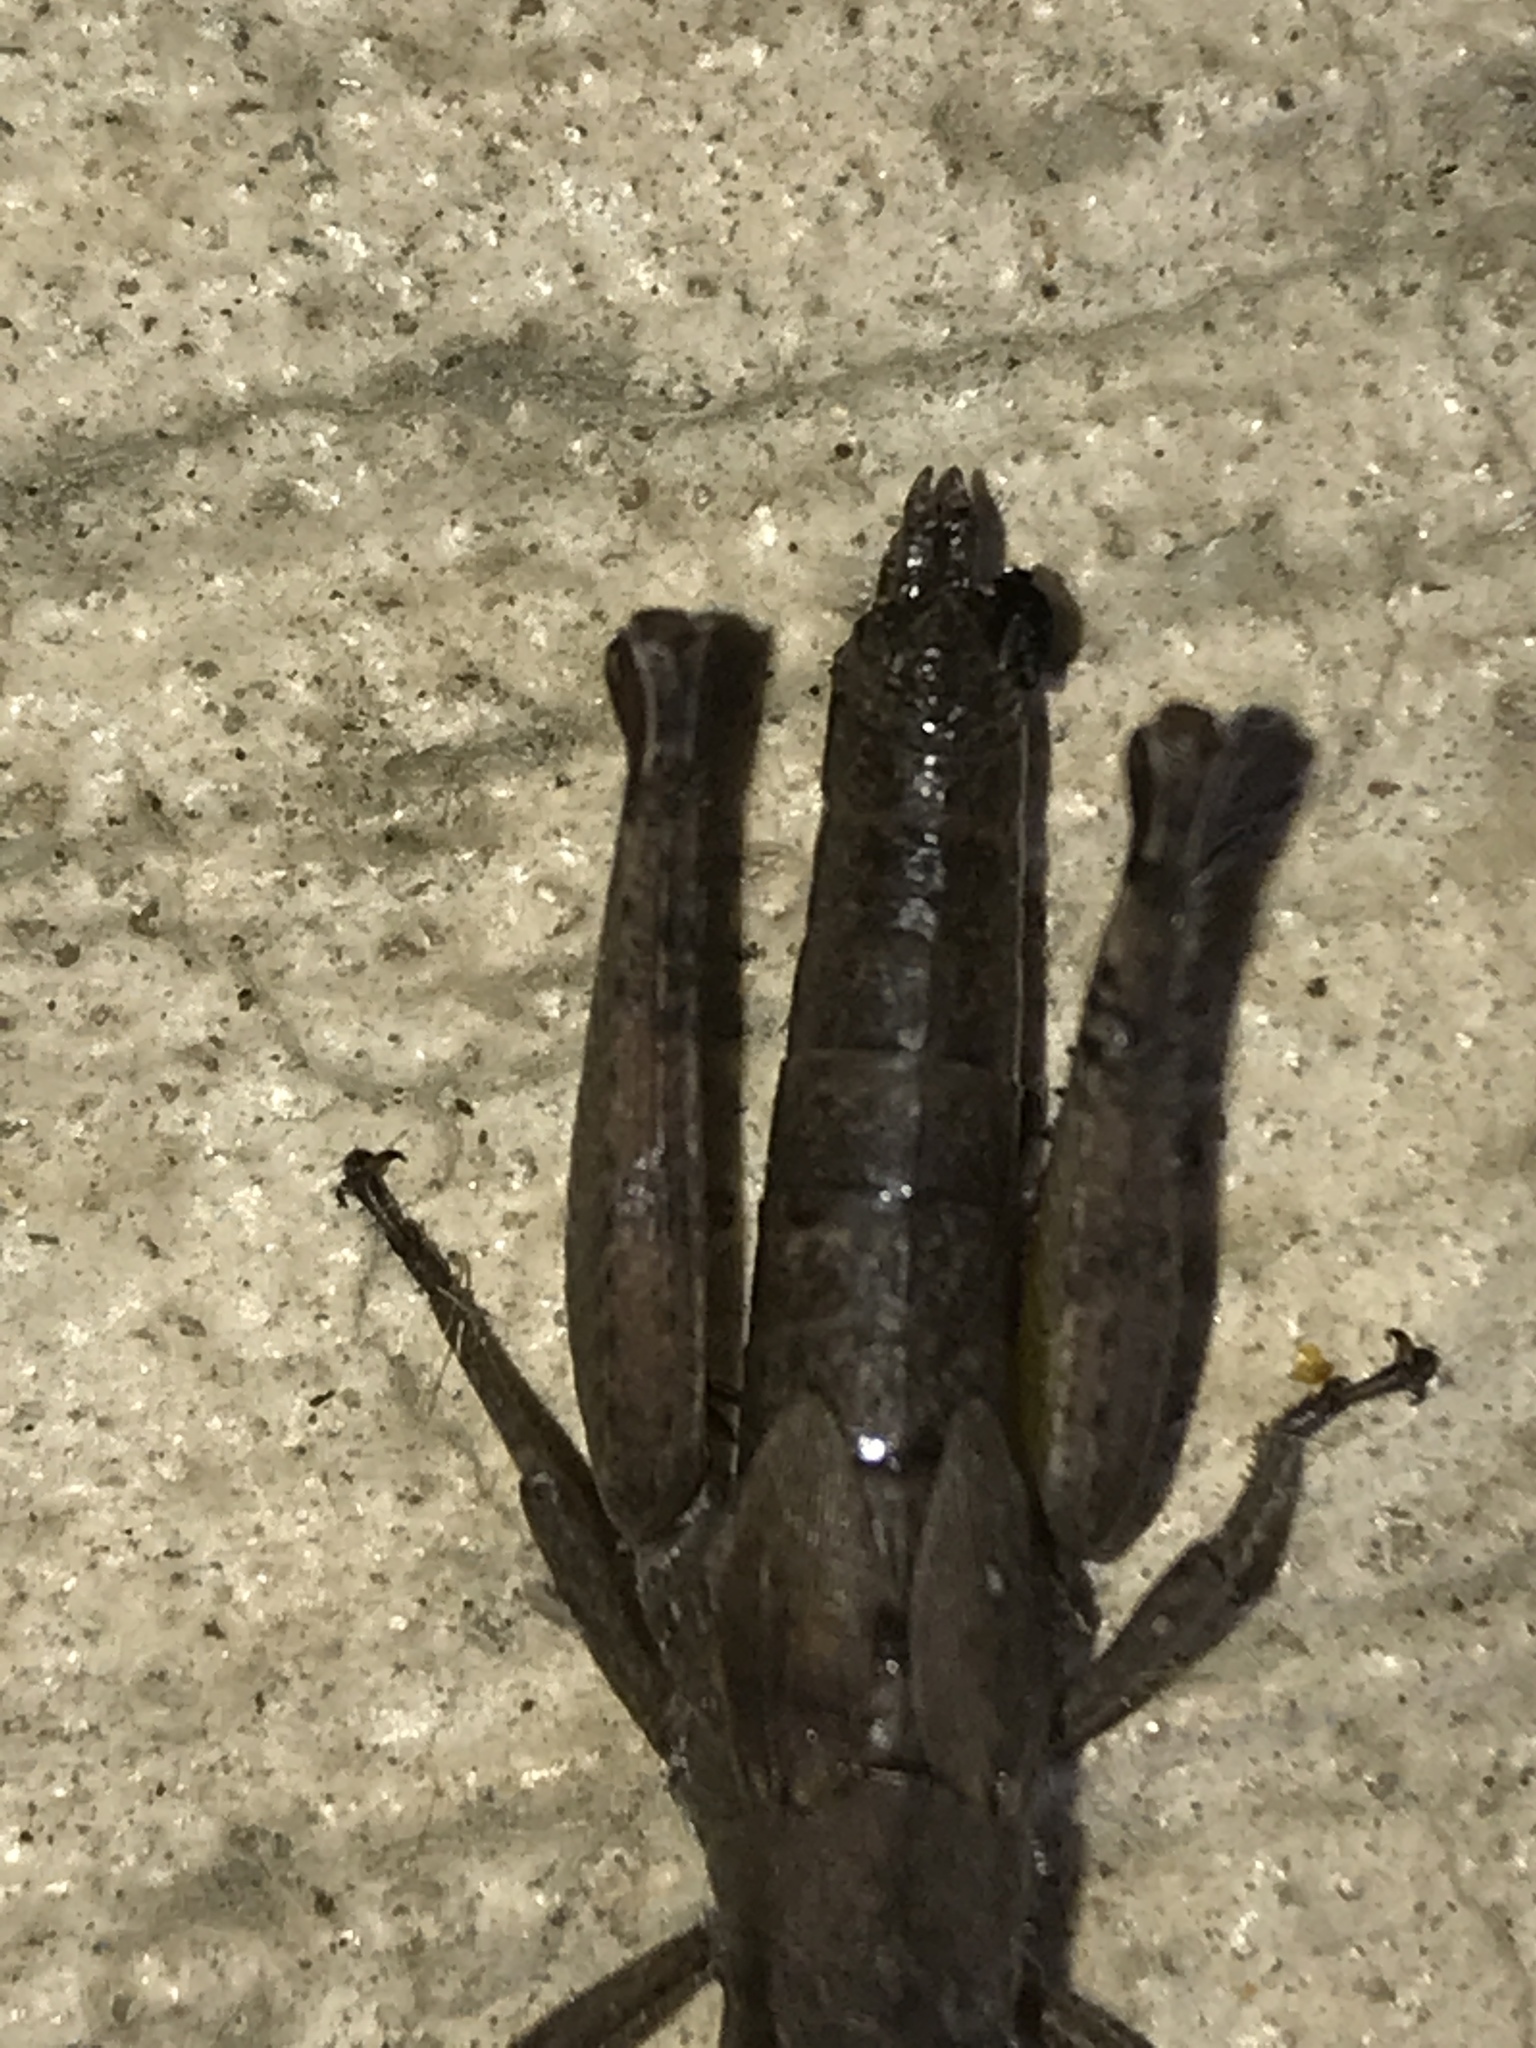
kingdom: Animalia
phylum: Arthropoda
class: Insecta
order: Orthoptera
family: Acrididae
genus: Melanoplus
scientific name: Melanoplus scudderi
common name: Scudder's short-winged locust
